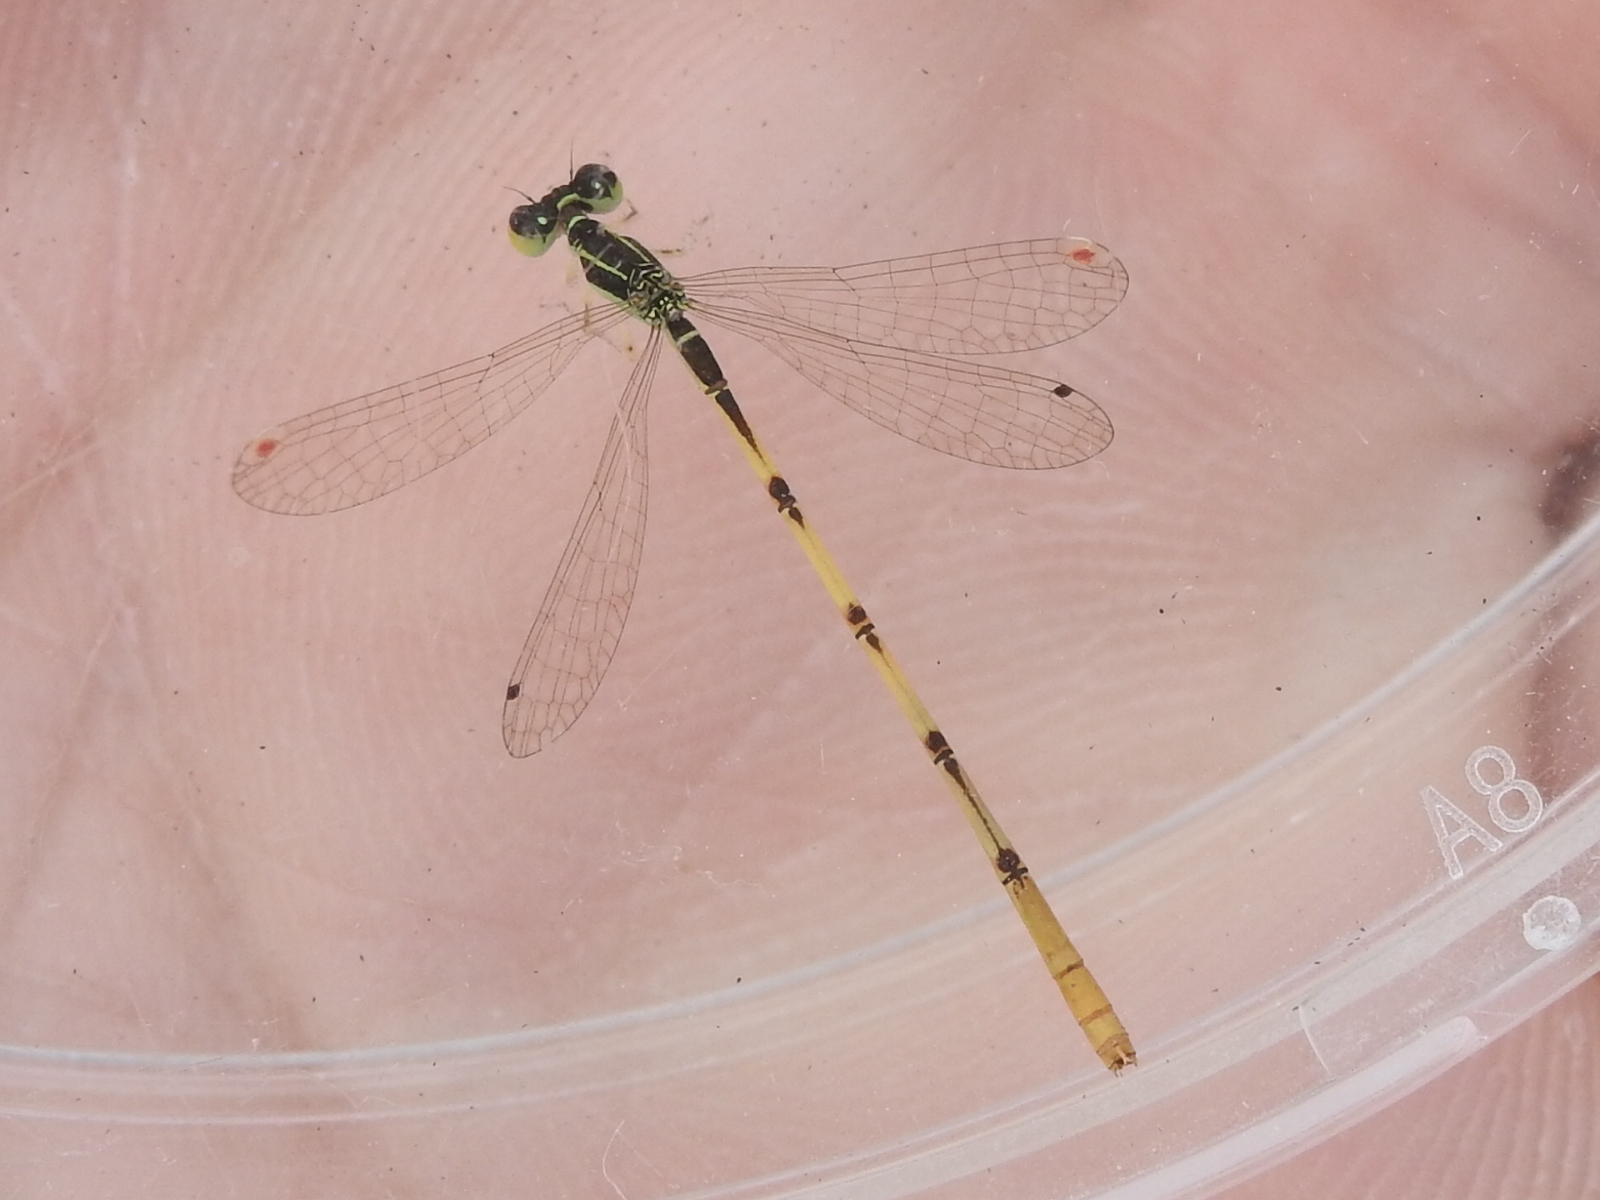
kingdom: Animalia
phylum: Arthropoda
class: Insecta
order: Odonata
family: Coenagrionidae
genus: Ischnura
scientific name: Ischnura hastata
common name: Citrine forktail
